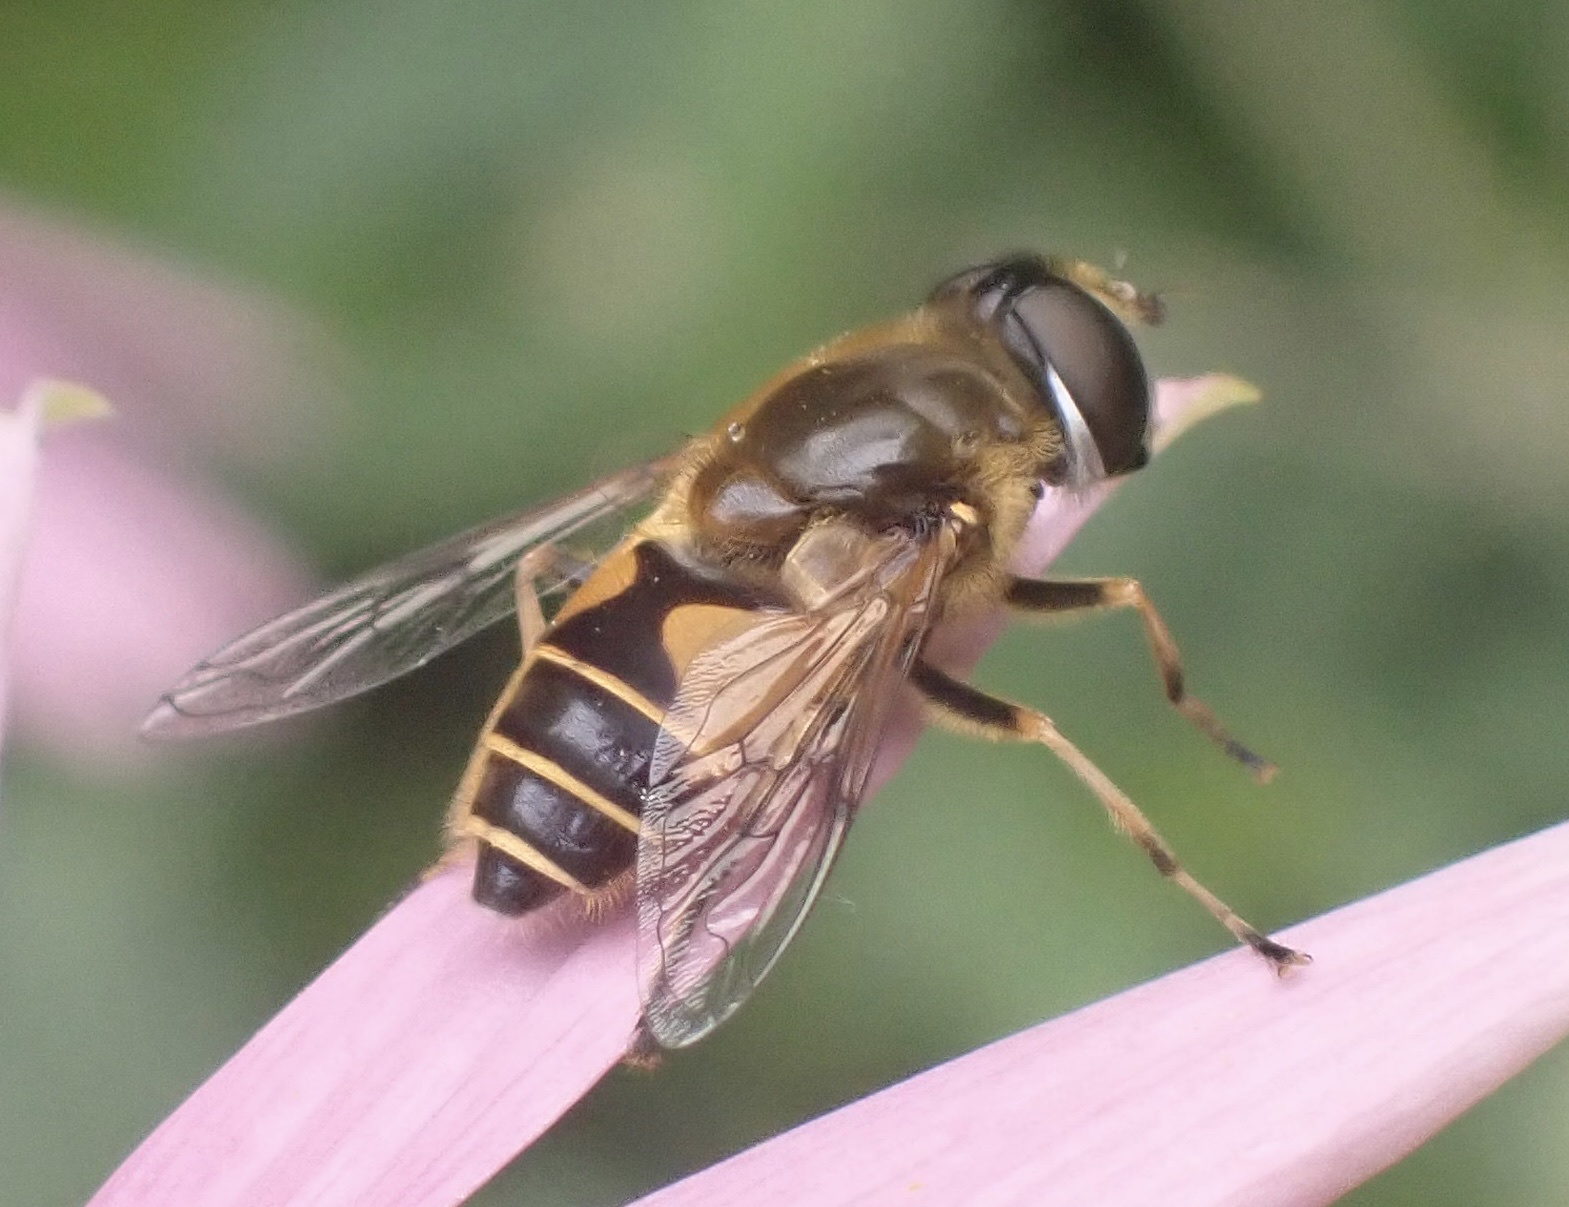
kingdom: Animalia
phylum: Arthropoda
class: Insecta
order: Diptera
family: Syrphidae
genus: Cheilosia
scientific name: Cheilosia morio
